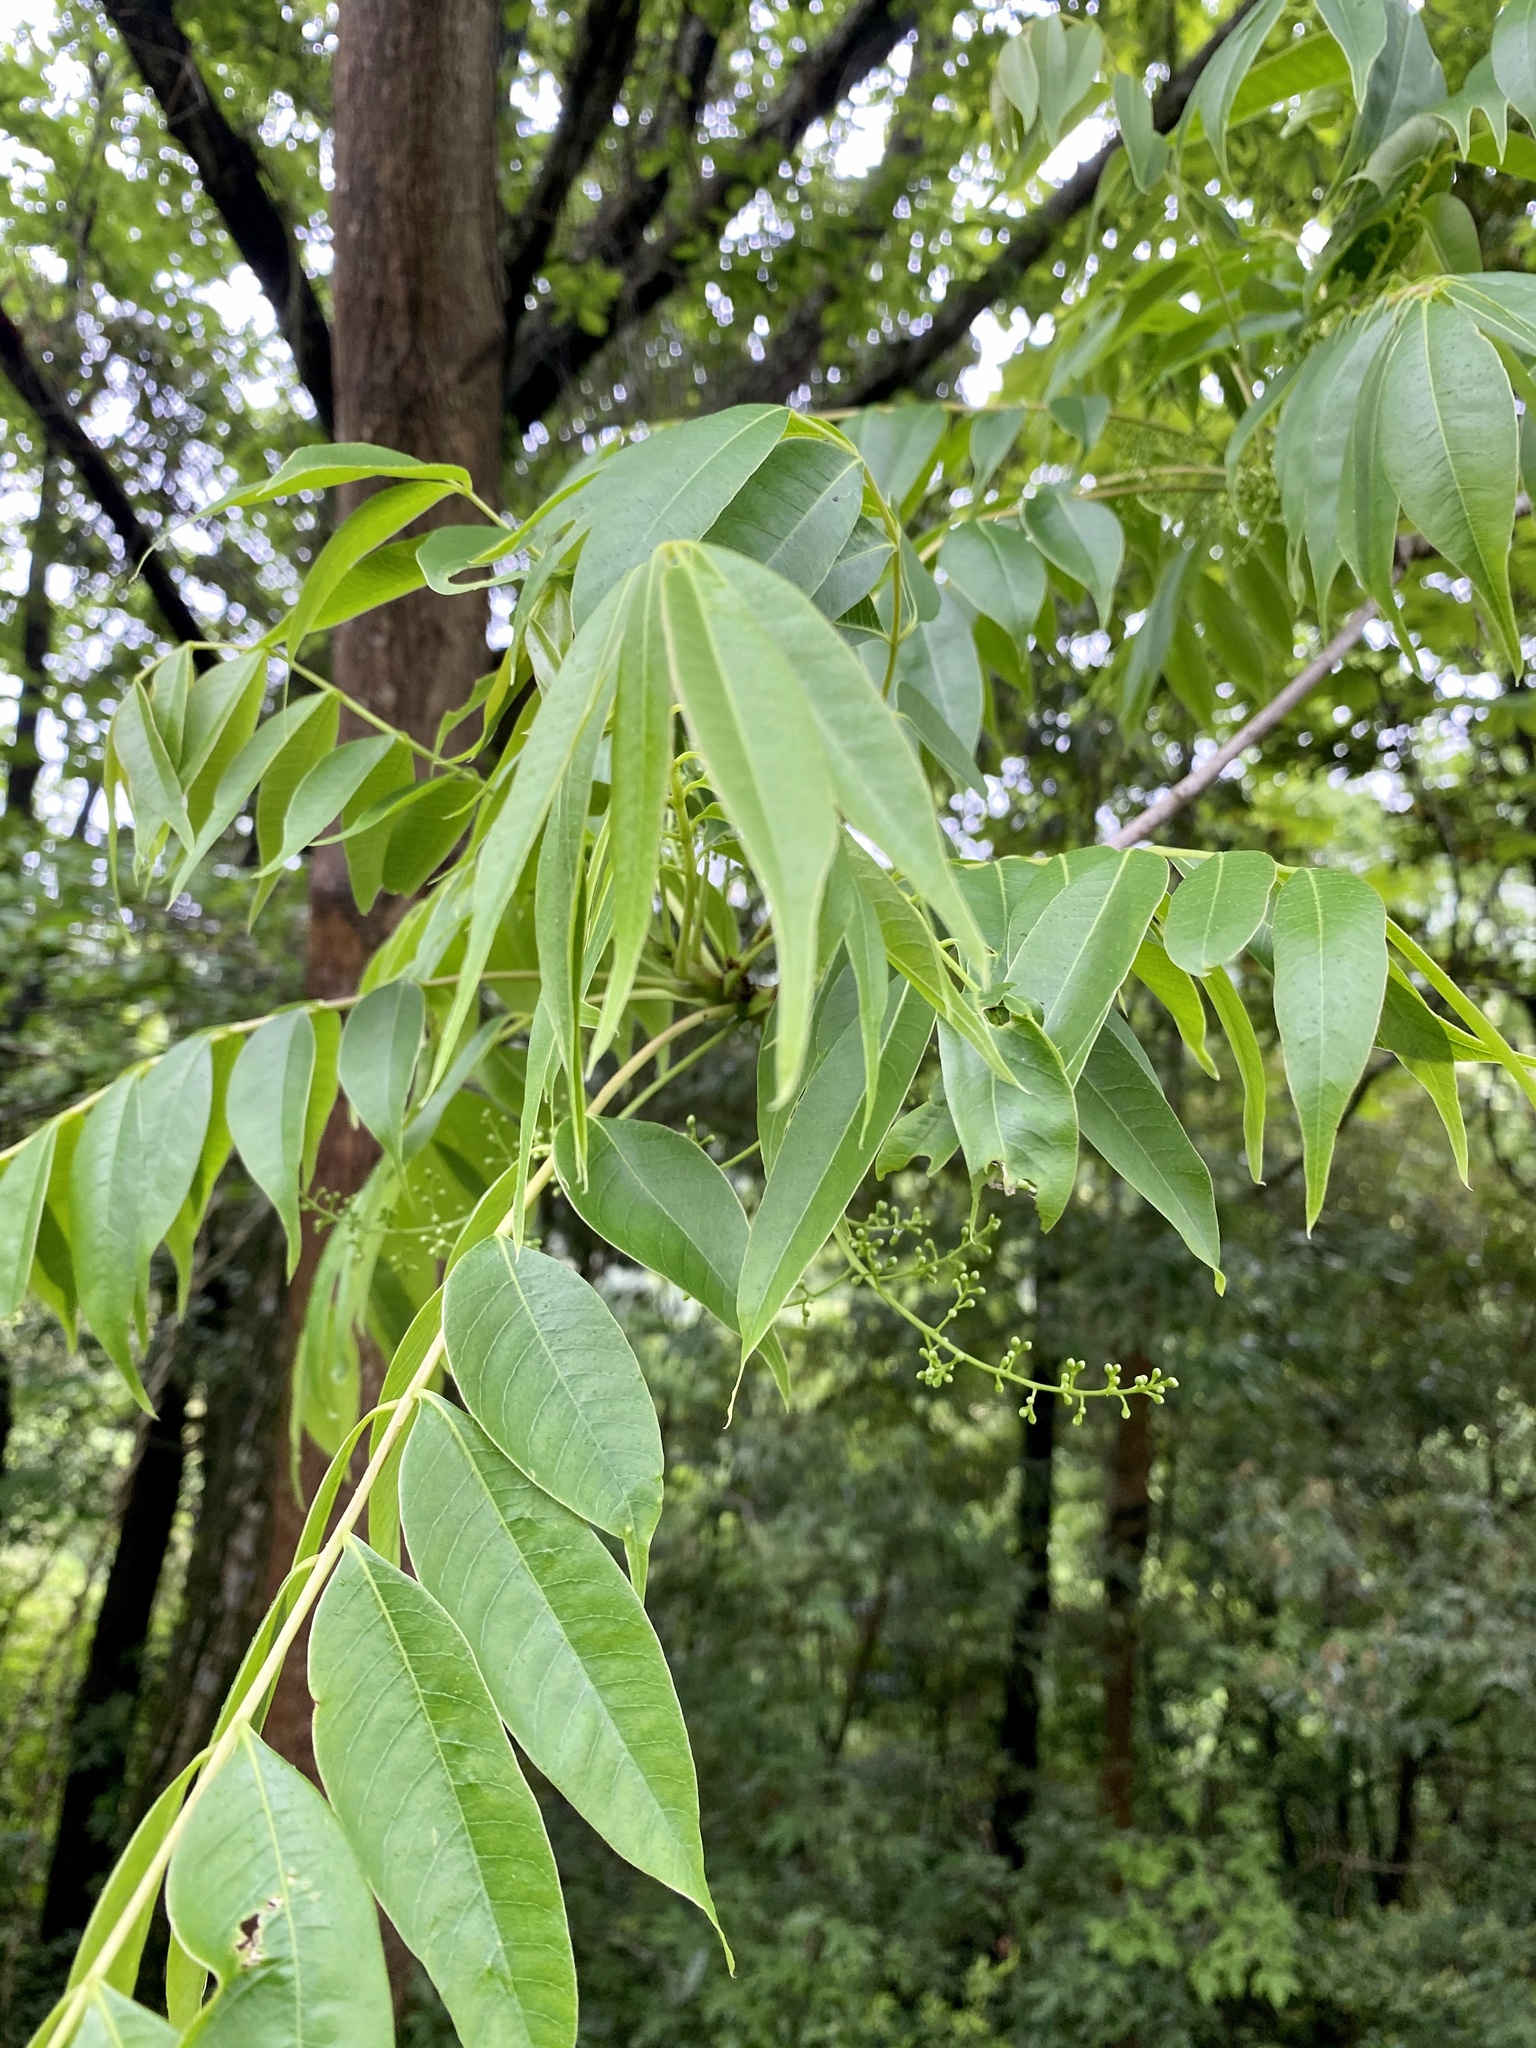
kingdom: Plantae
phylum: Tracheophyta
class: Magnoliopsida
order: Sapindales
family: Anacardiaceae
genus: Toxicodendron
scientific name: Toxicodendron succedaneum
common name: Wax tree
